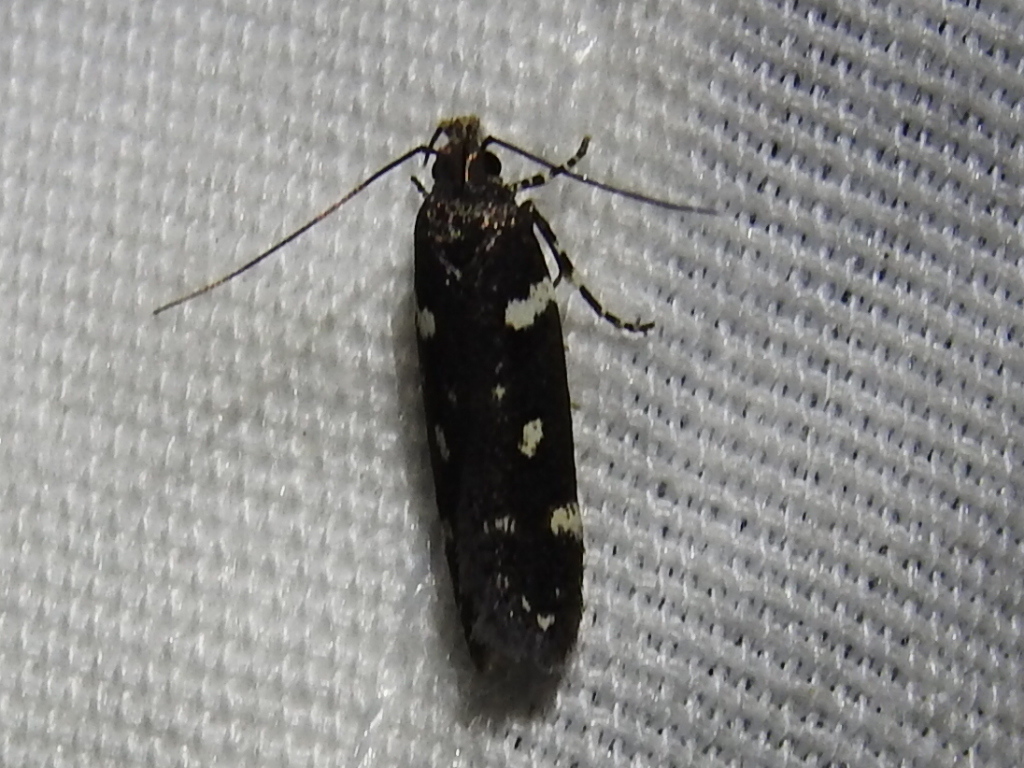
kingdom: Animalia
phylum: Arthropoda
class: Insecta
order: Lepidoptera
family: Gelechiidae
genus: Aroga
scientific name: Aroga compositella
